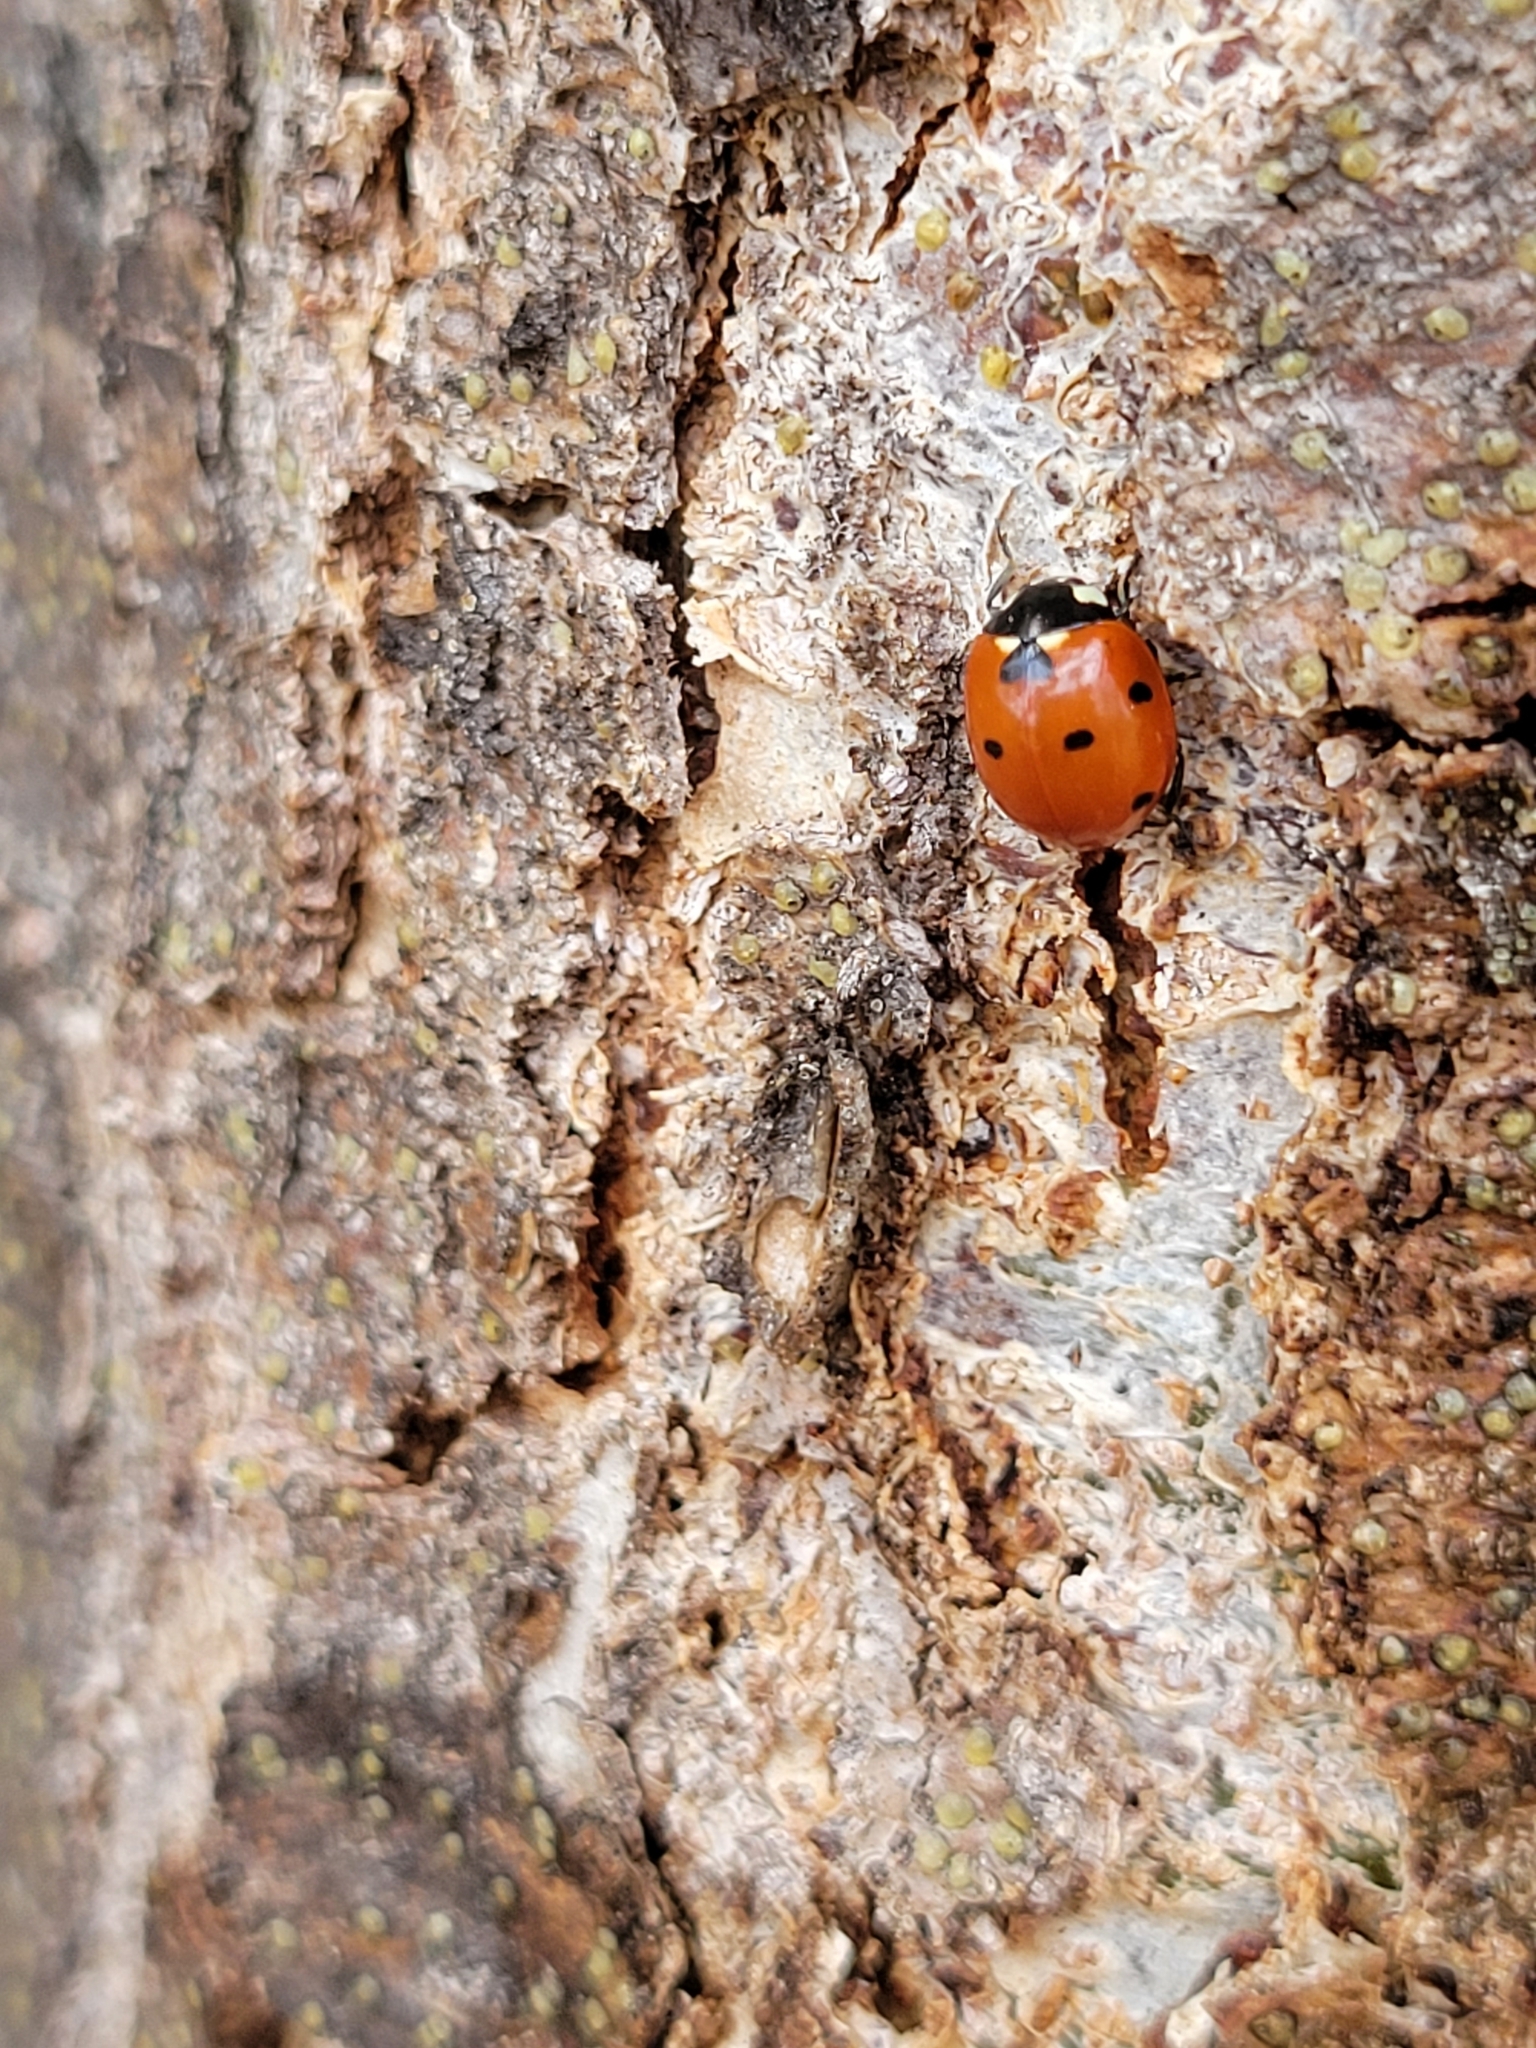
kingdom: Animalia
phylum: Arthropoda
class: Insecta
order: Coleoptera
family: Coccinellidae
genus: Coccinella
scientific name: Coccinella septempunctata
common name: Sevenspotted lady beetle
